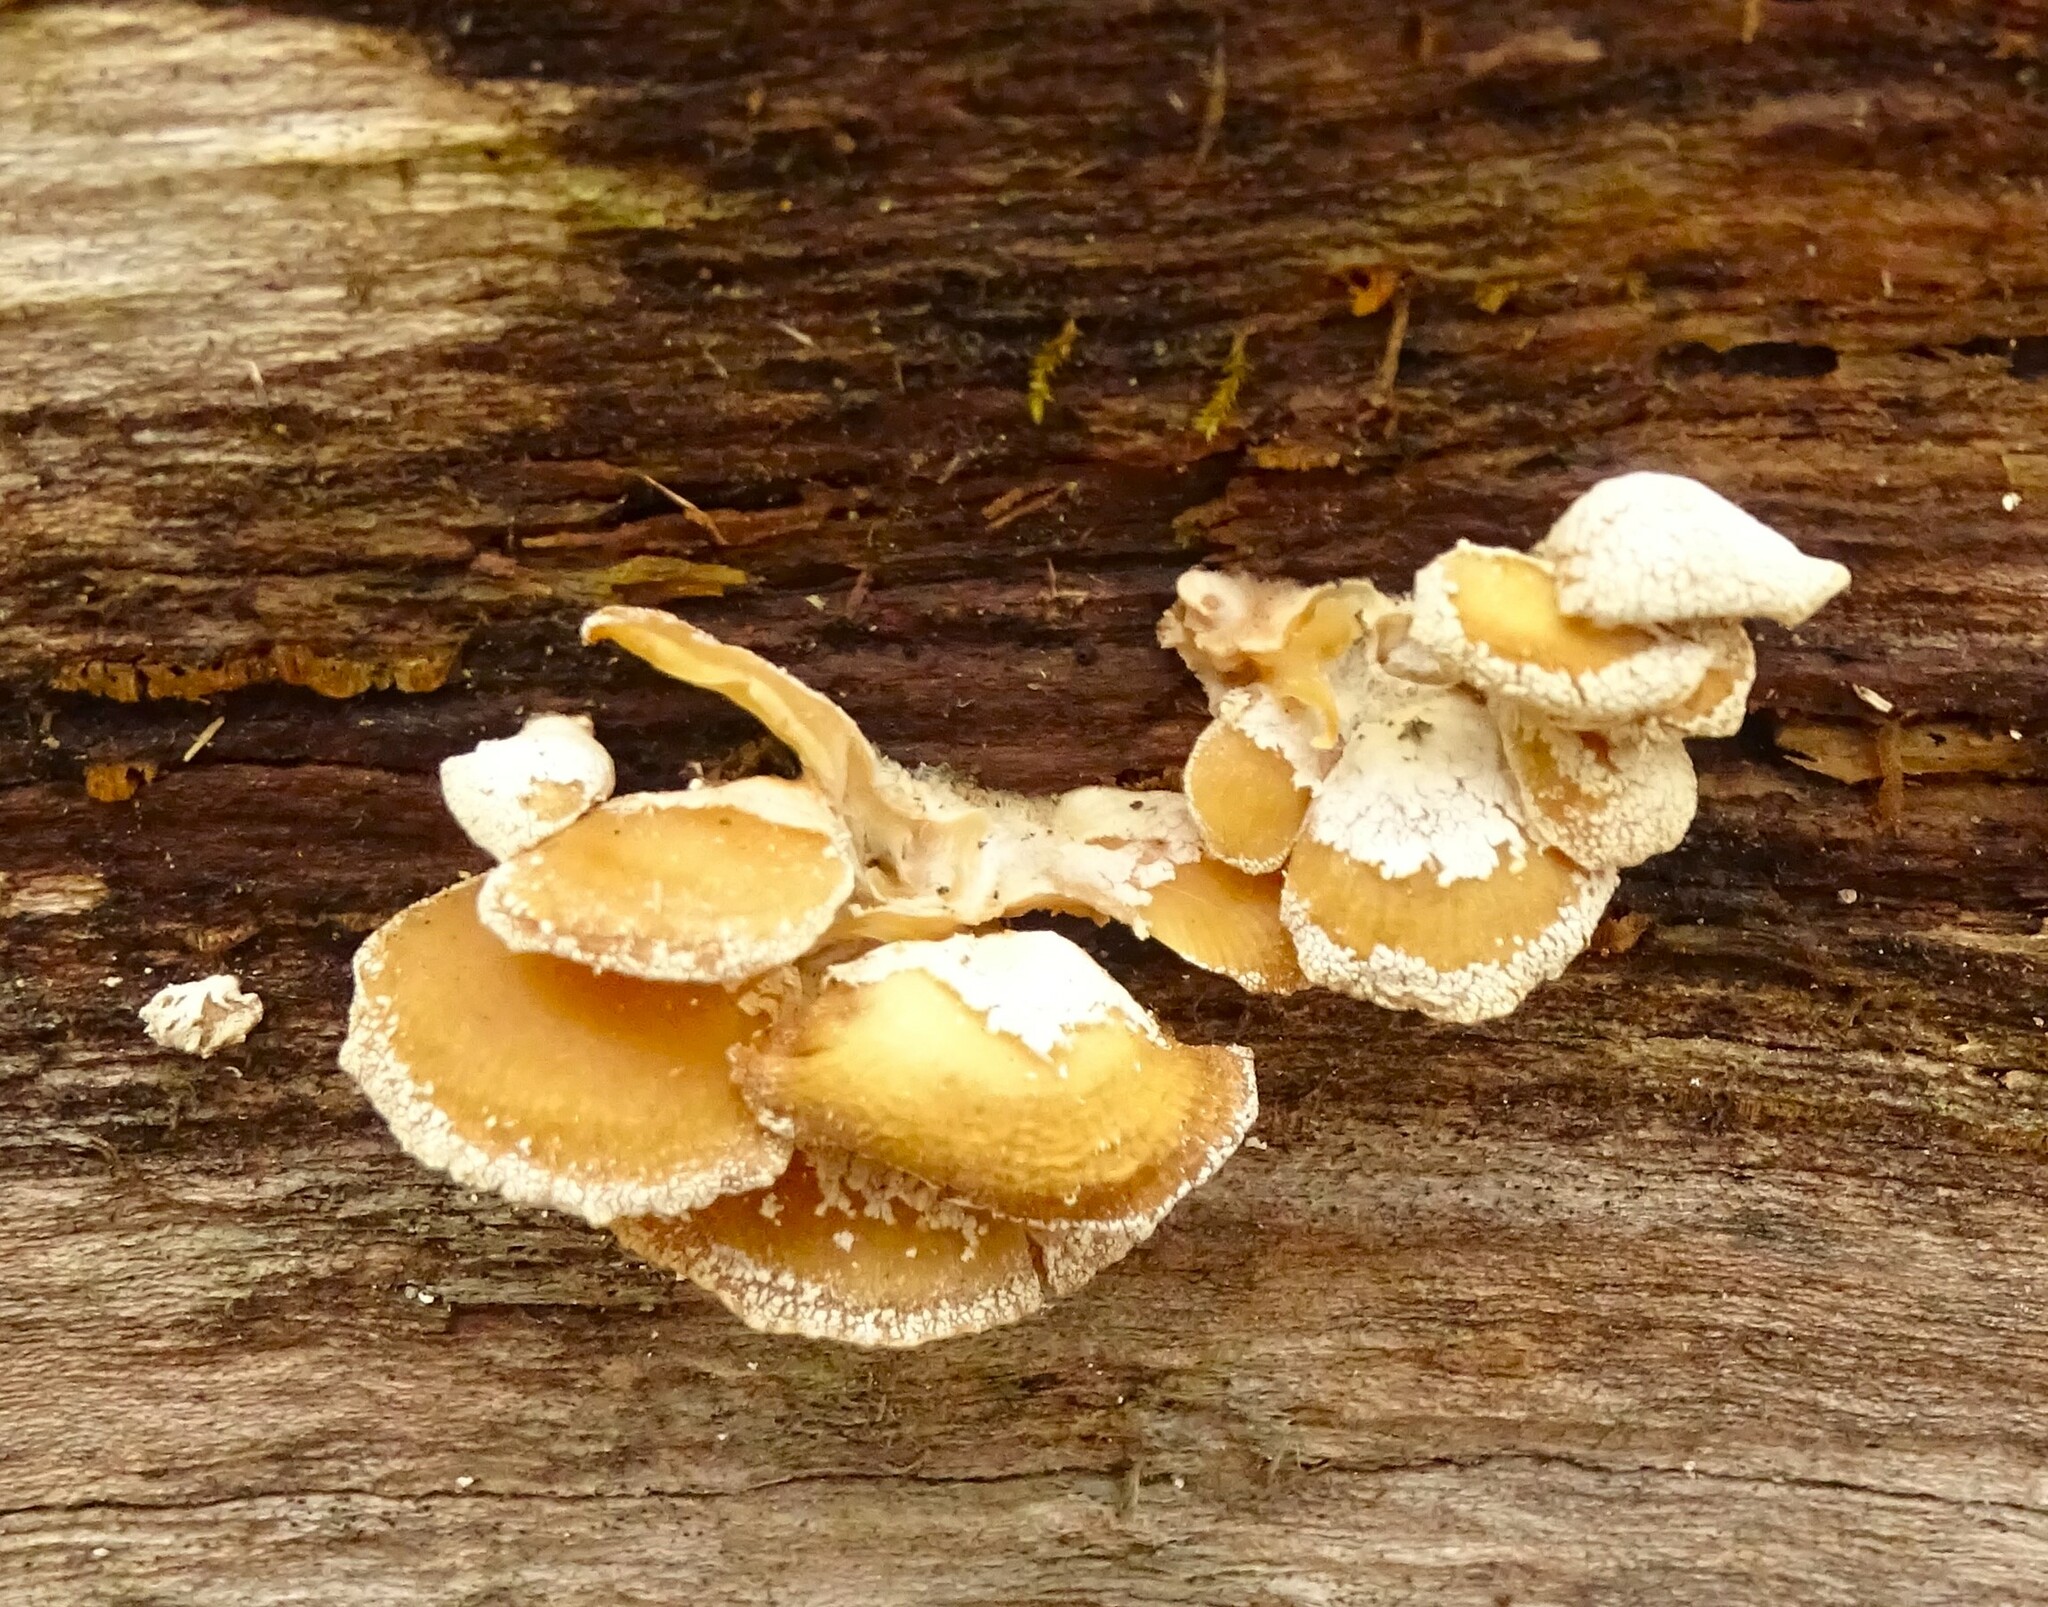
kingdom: Fungi
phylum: Basidiomycota
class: Agaricomycetes
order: Agaricales
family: Mycenaceae
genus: Panellus
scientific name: Panellus stipticus
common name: Bitter oysterling
